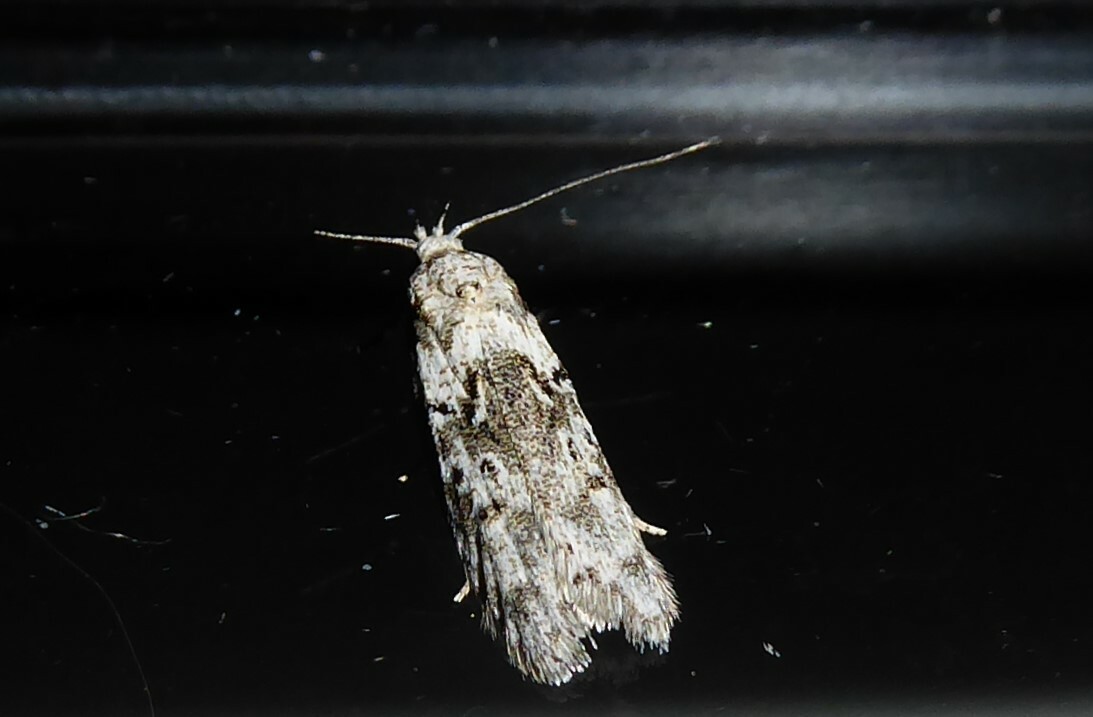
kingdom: Animalia
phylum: Arthropoda
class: Insecta
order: Lepidoptera
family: Oecophoridae
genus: Izatha
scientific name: Izatha convulsella
